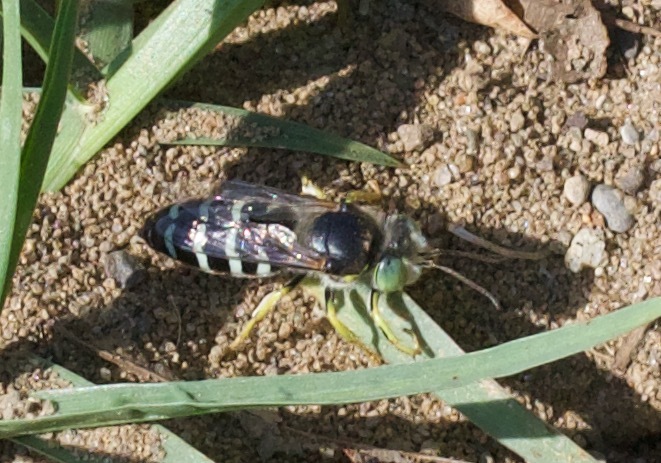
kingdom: Animalia
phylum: Arthropoda
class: Insecta
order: Hymenoptera
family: Crabronidae
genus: Bembix
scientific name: Bembix americana
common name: American sand wasp
